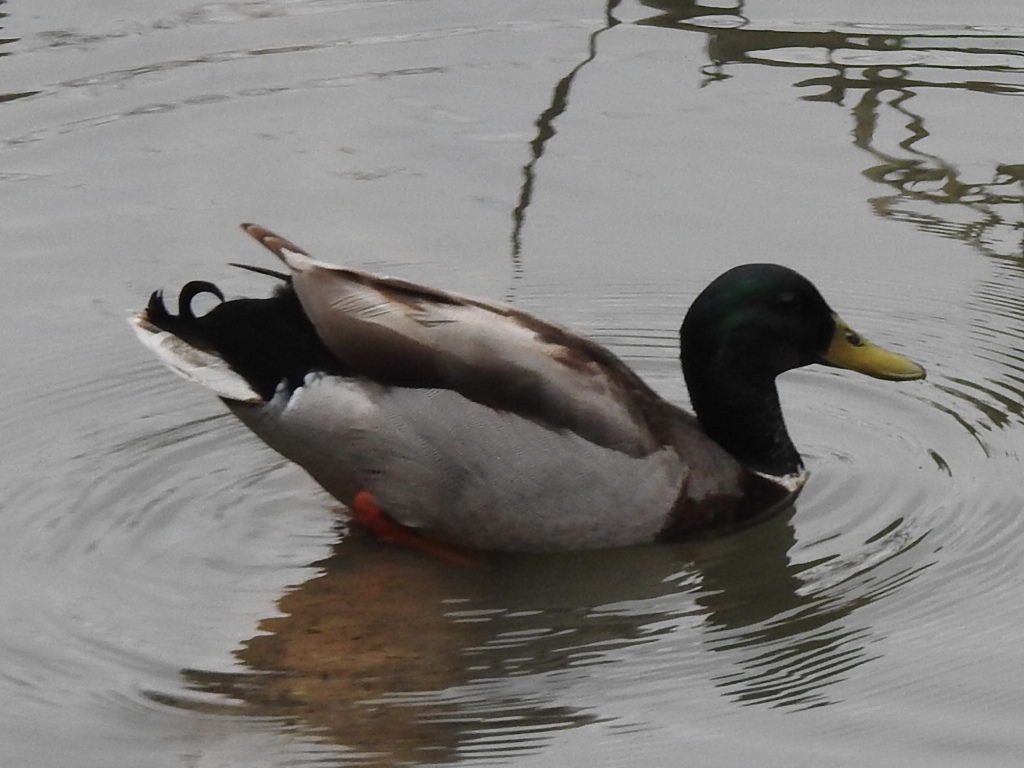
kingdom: Animalia
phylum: Chordata
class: Aves
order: Anseriformes
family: Anatidae
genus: Anas
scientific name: Anas platyrhynchos
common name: Mallard
